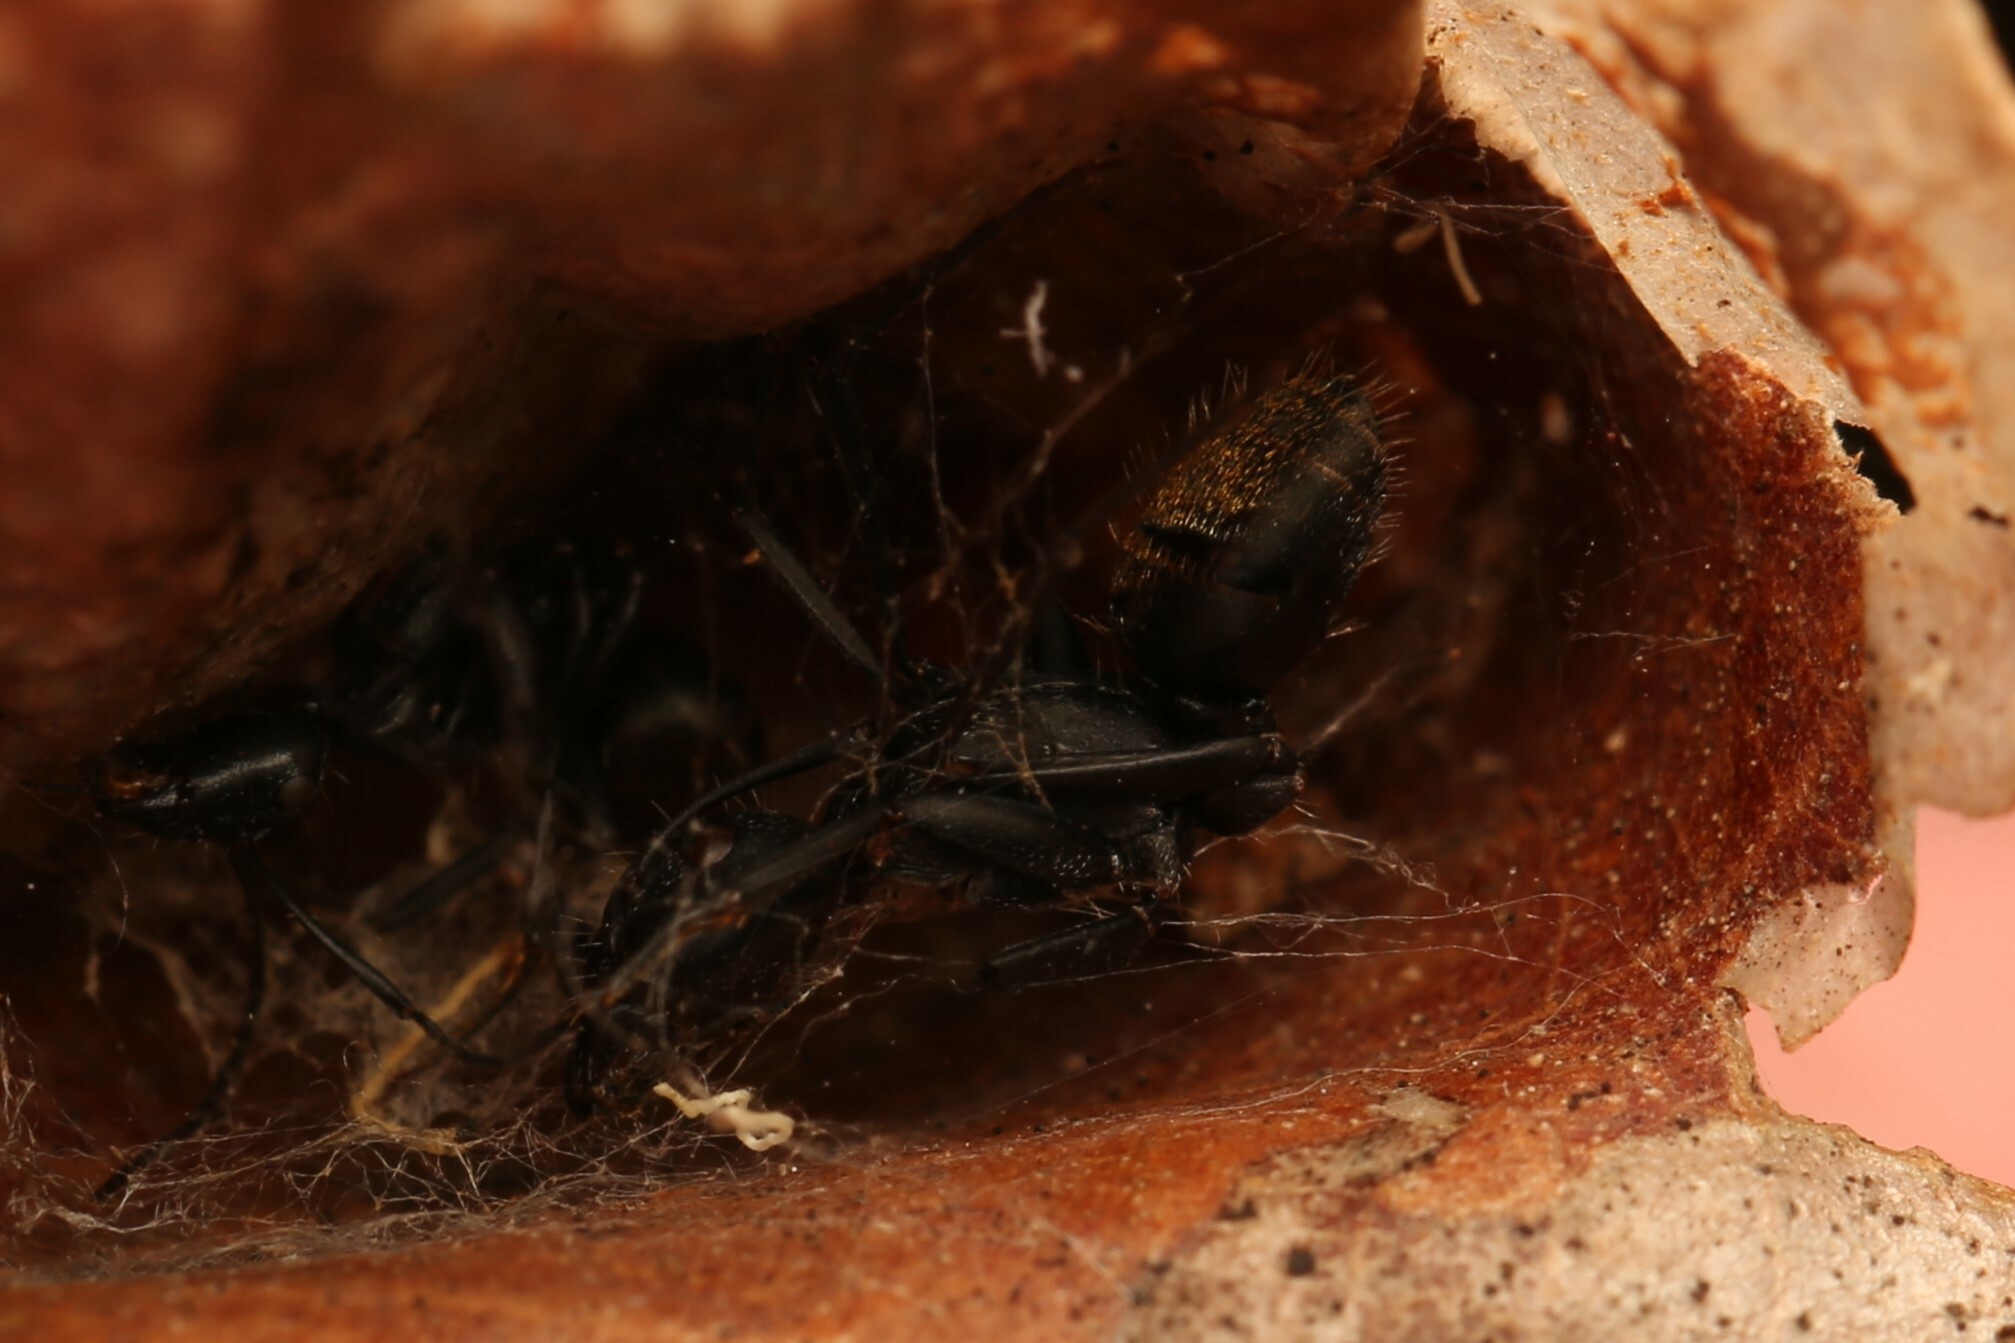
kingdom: Animalia
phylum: Arthropoda
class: Insecta
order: Hymenoptera
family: Formicidae
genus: Camponotus
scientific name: Camponotus aeneopilosus
